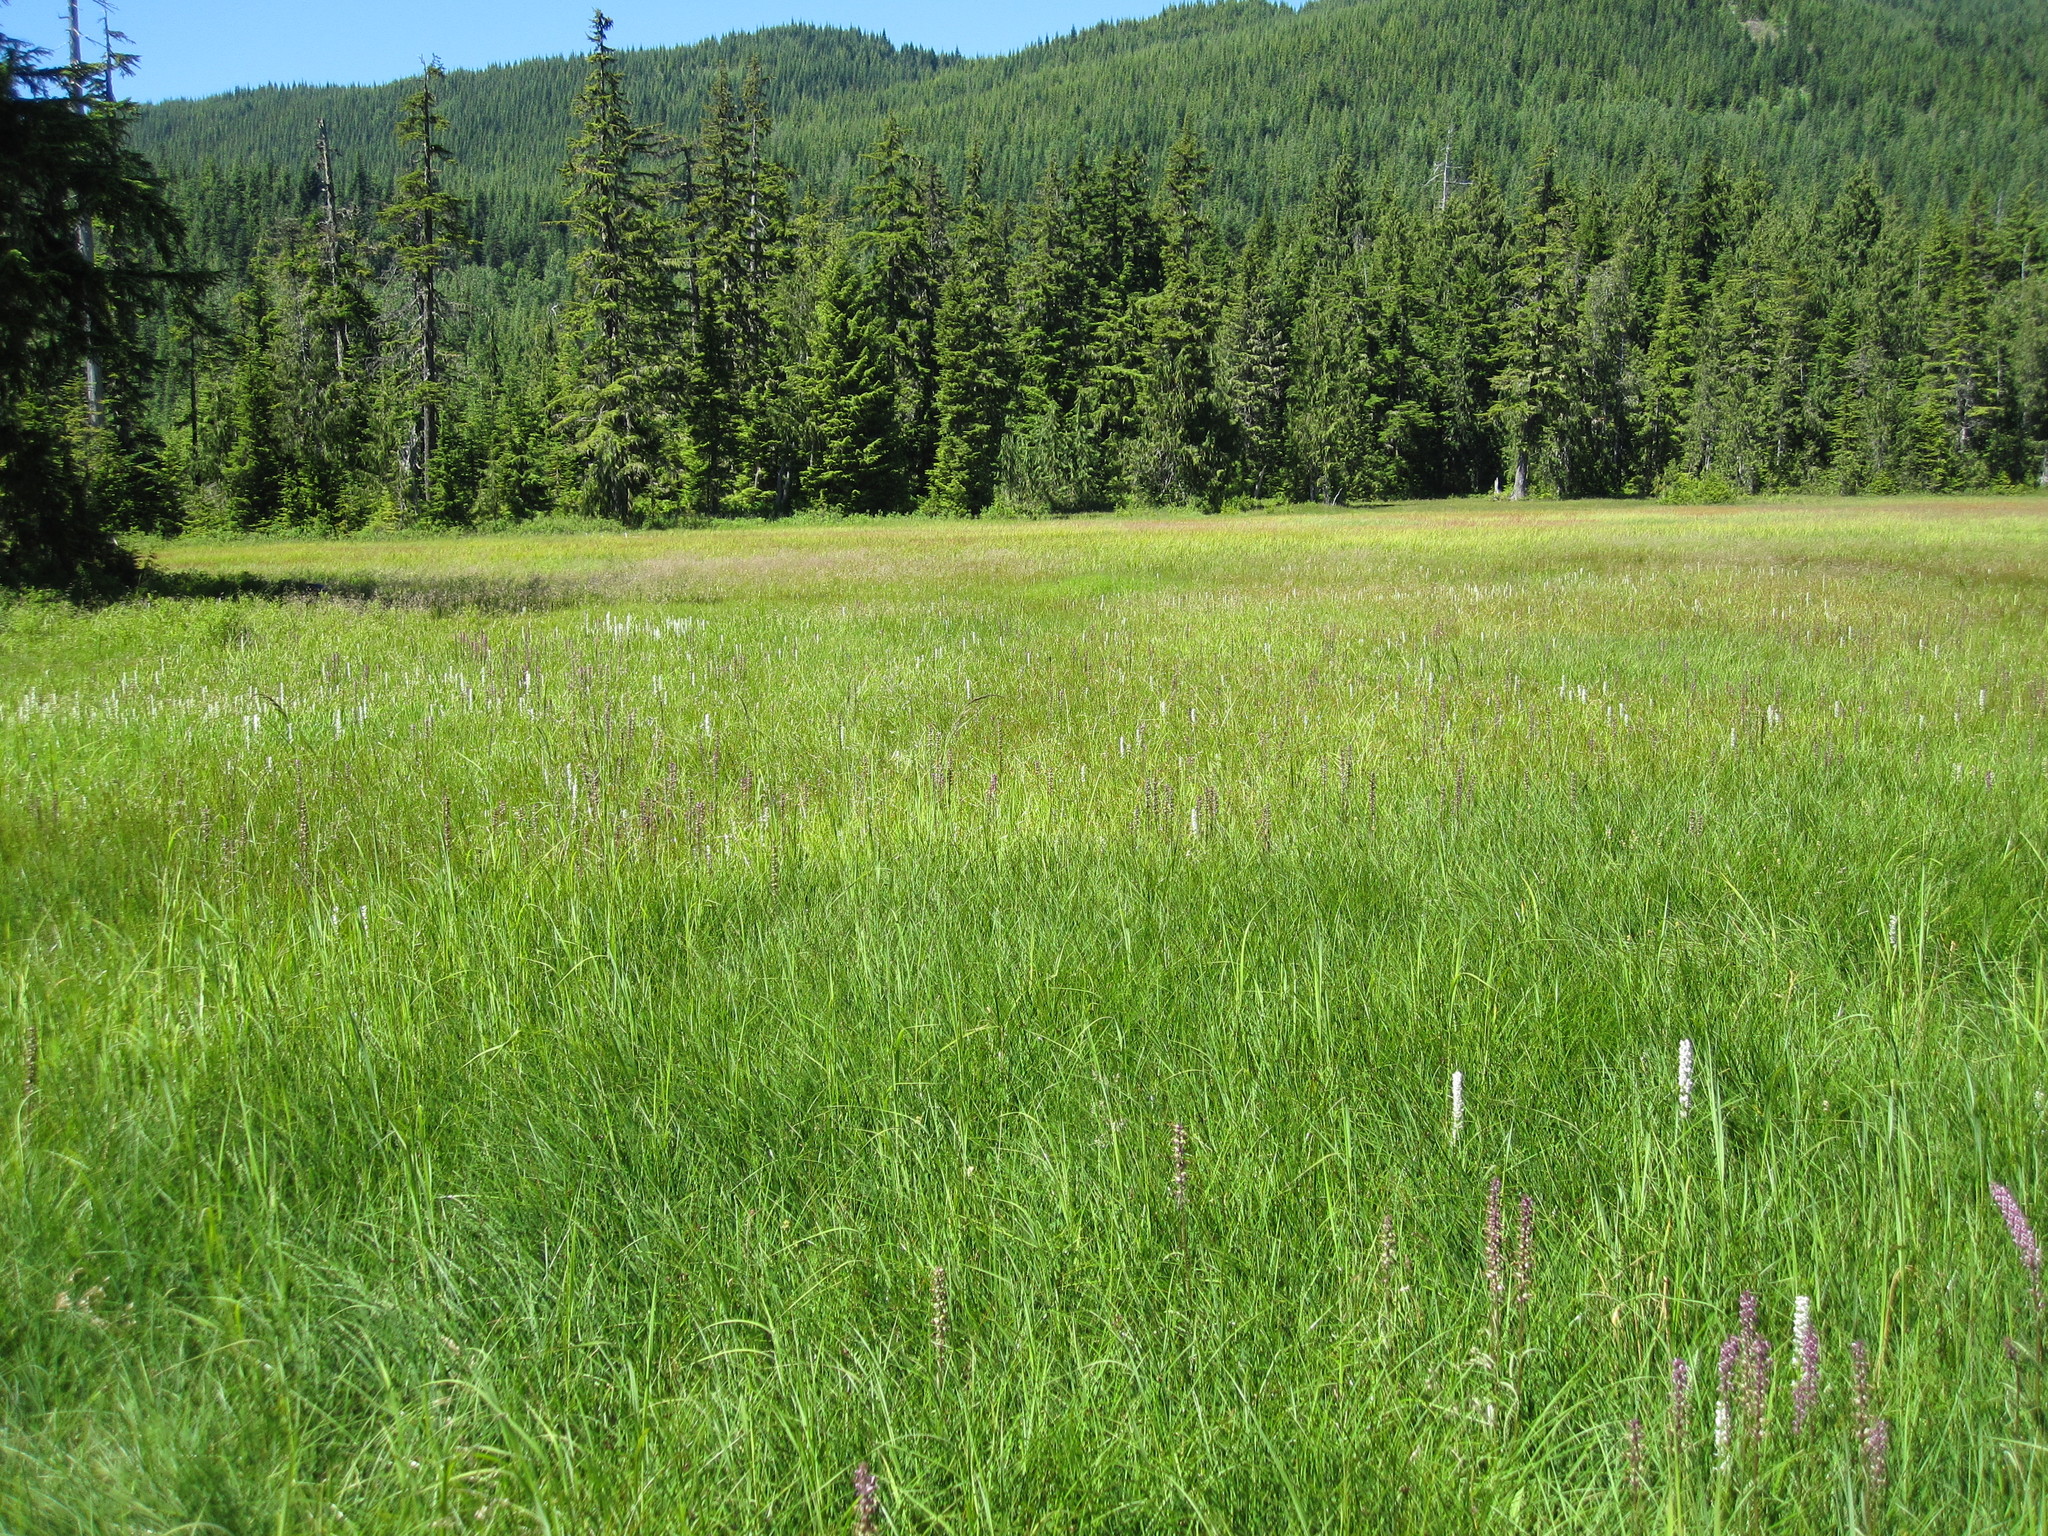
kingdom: Plantae
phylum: Tracheophyta
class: Magnoliopsida
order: Lamiales
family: Orobanchaceae
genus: Pedicularis
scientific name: Pedicularis groenlandica
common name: Elephant's-head
